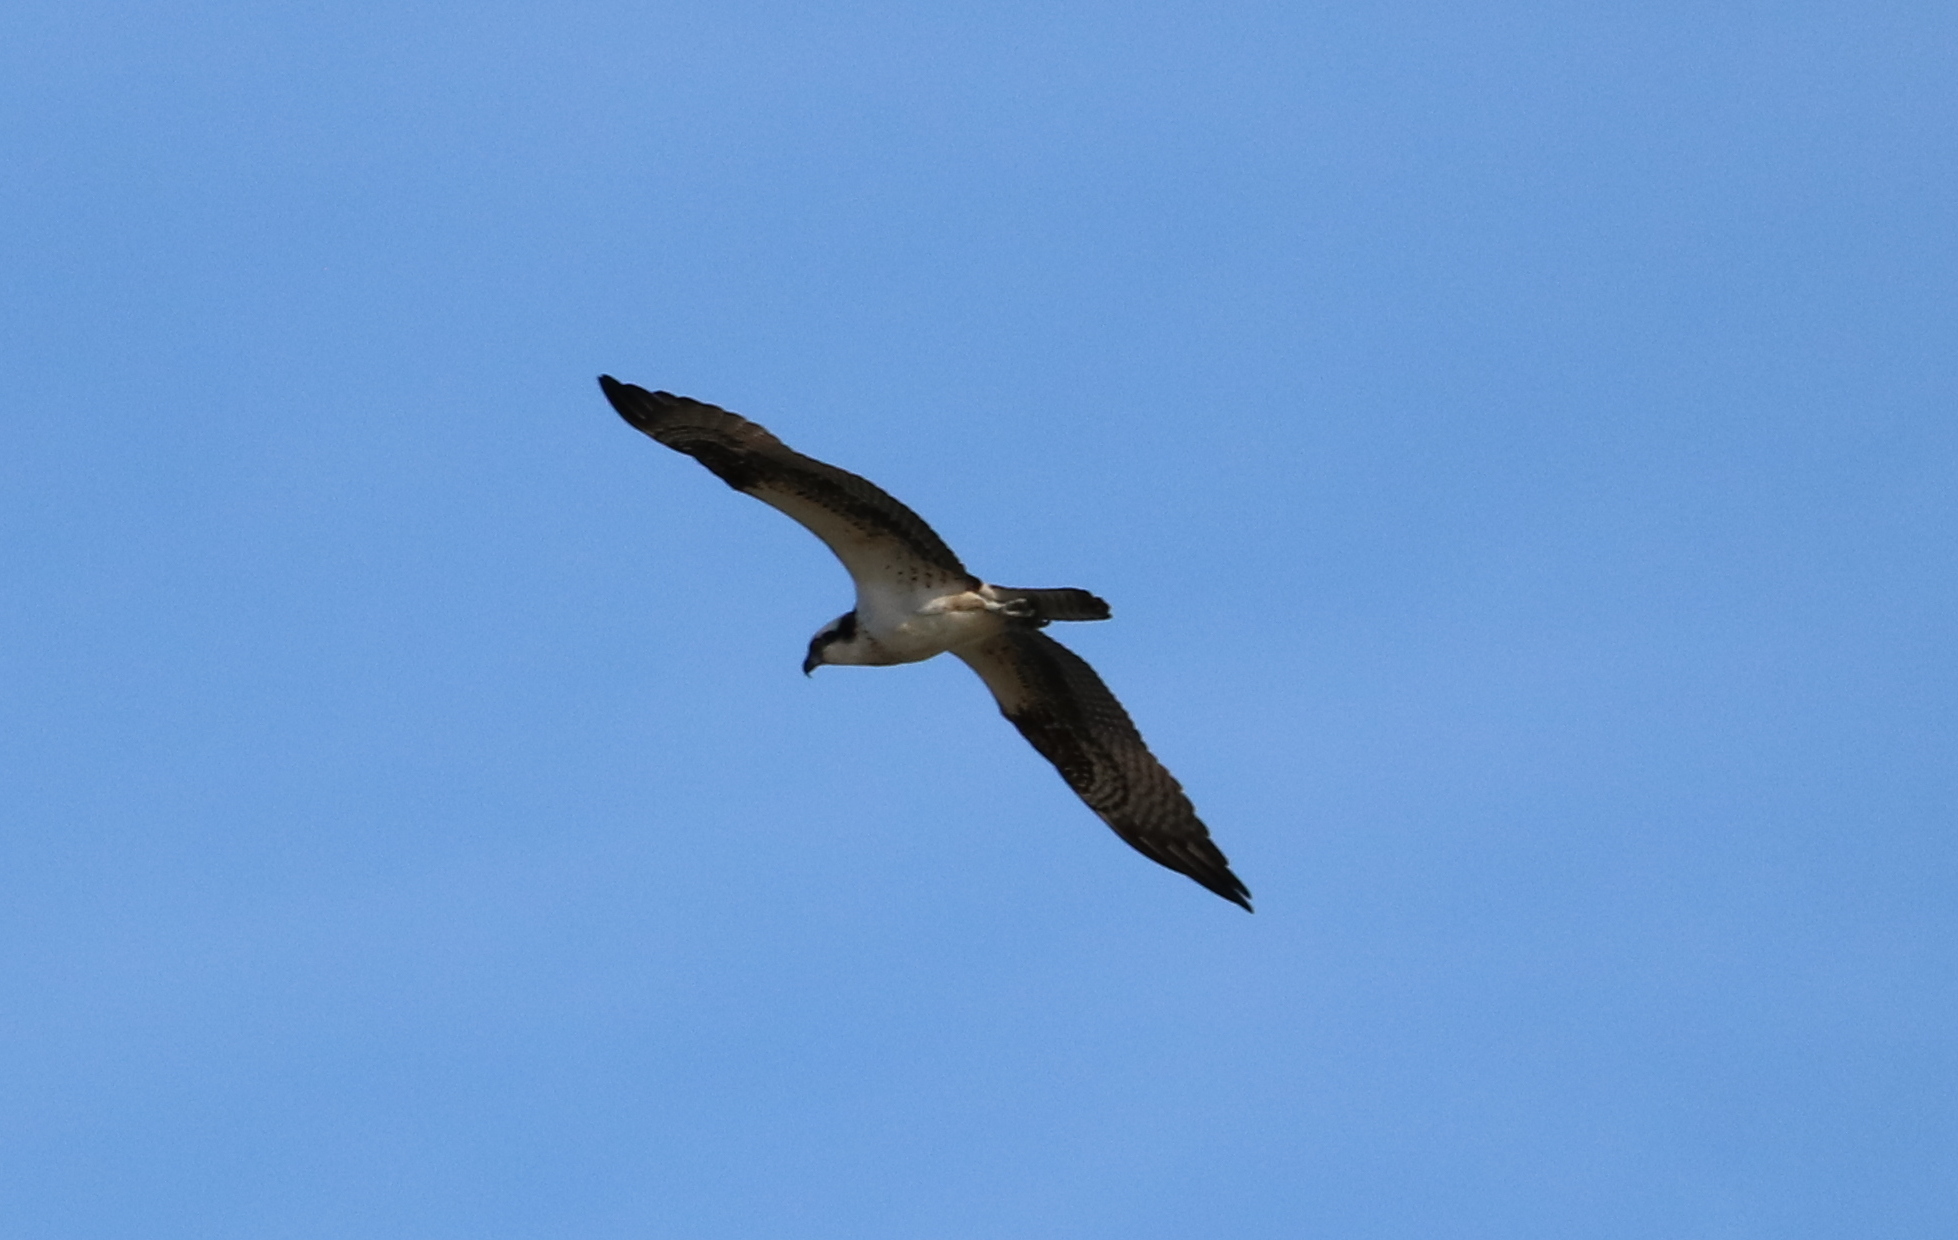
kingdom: Animalia
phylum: Chordata
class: Aves
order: Accipitriformes
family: Pandionidae
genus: Pandion
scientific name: Pandion haliaetus
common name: Osprey
